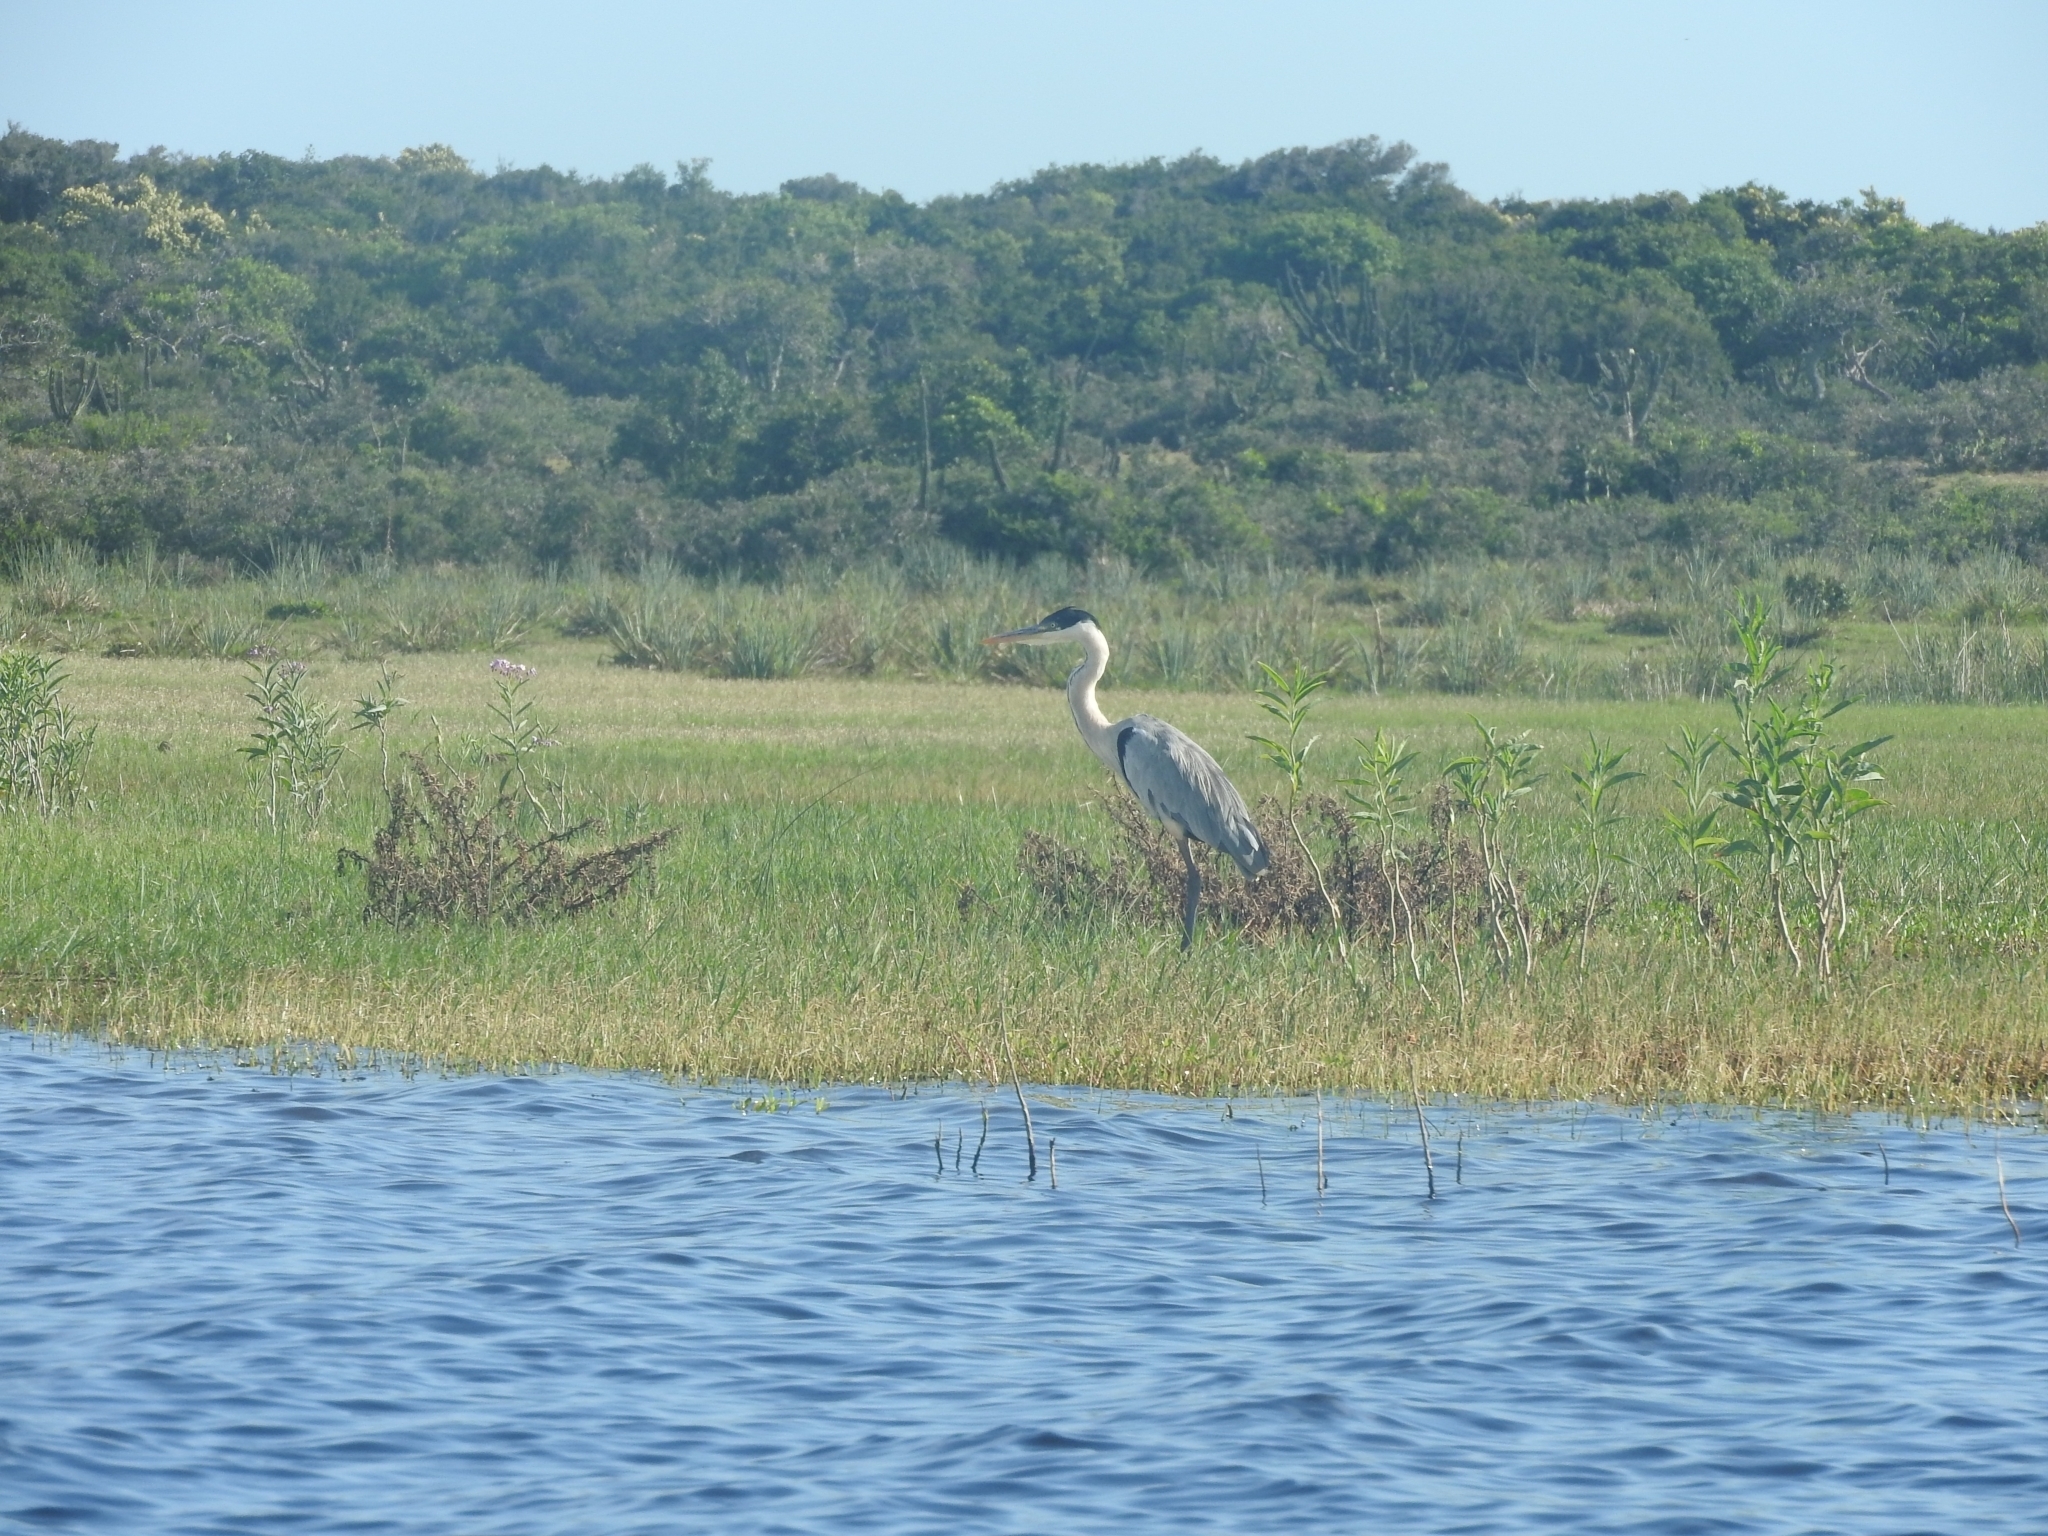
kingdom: Animalia
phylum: Chordata
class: Aves
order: Pelecaniformes
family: Ardeidae
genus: Ardea
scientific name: Ardea cocoi
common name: Cocoi heron
